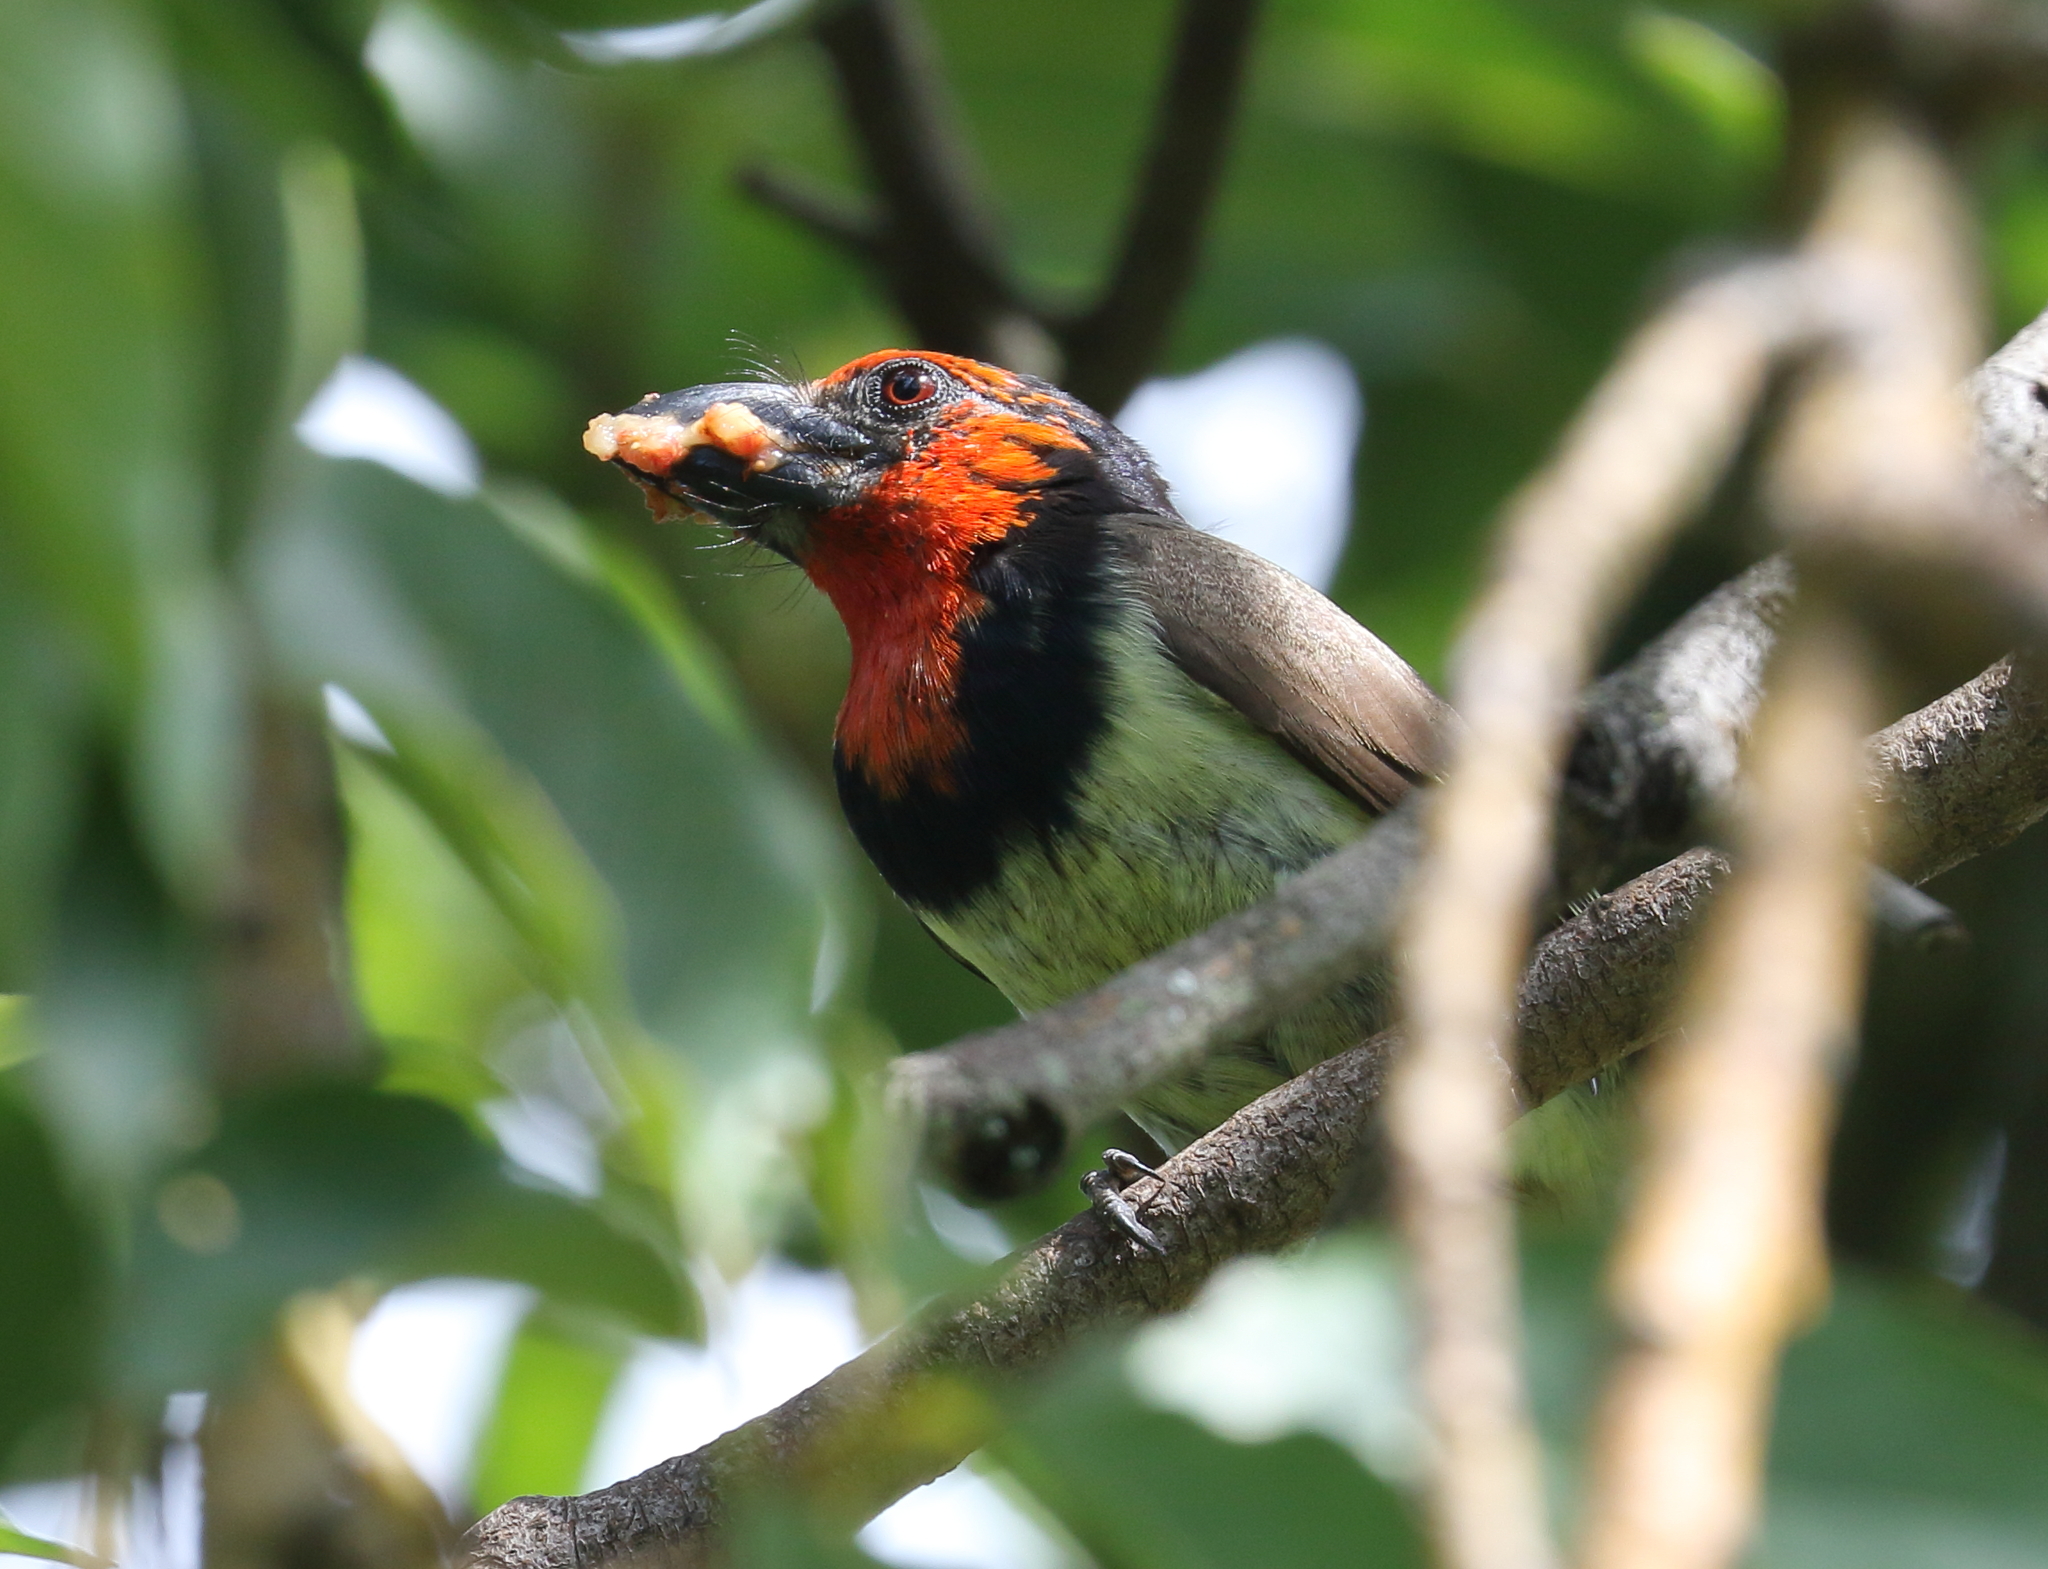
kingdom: Animalia
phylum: Chordata
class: Aves
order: Piciformes
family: Lybiidae
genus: Lybius
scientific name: Lybius torquatus
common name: Black-collared barbet
